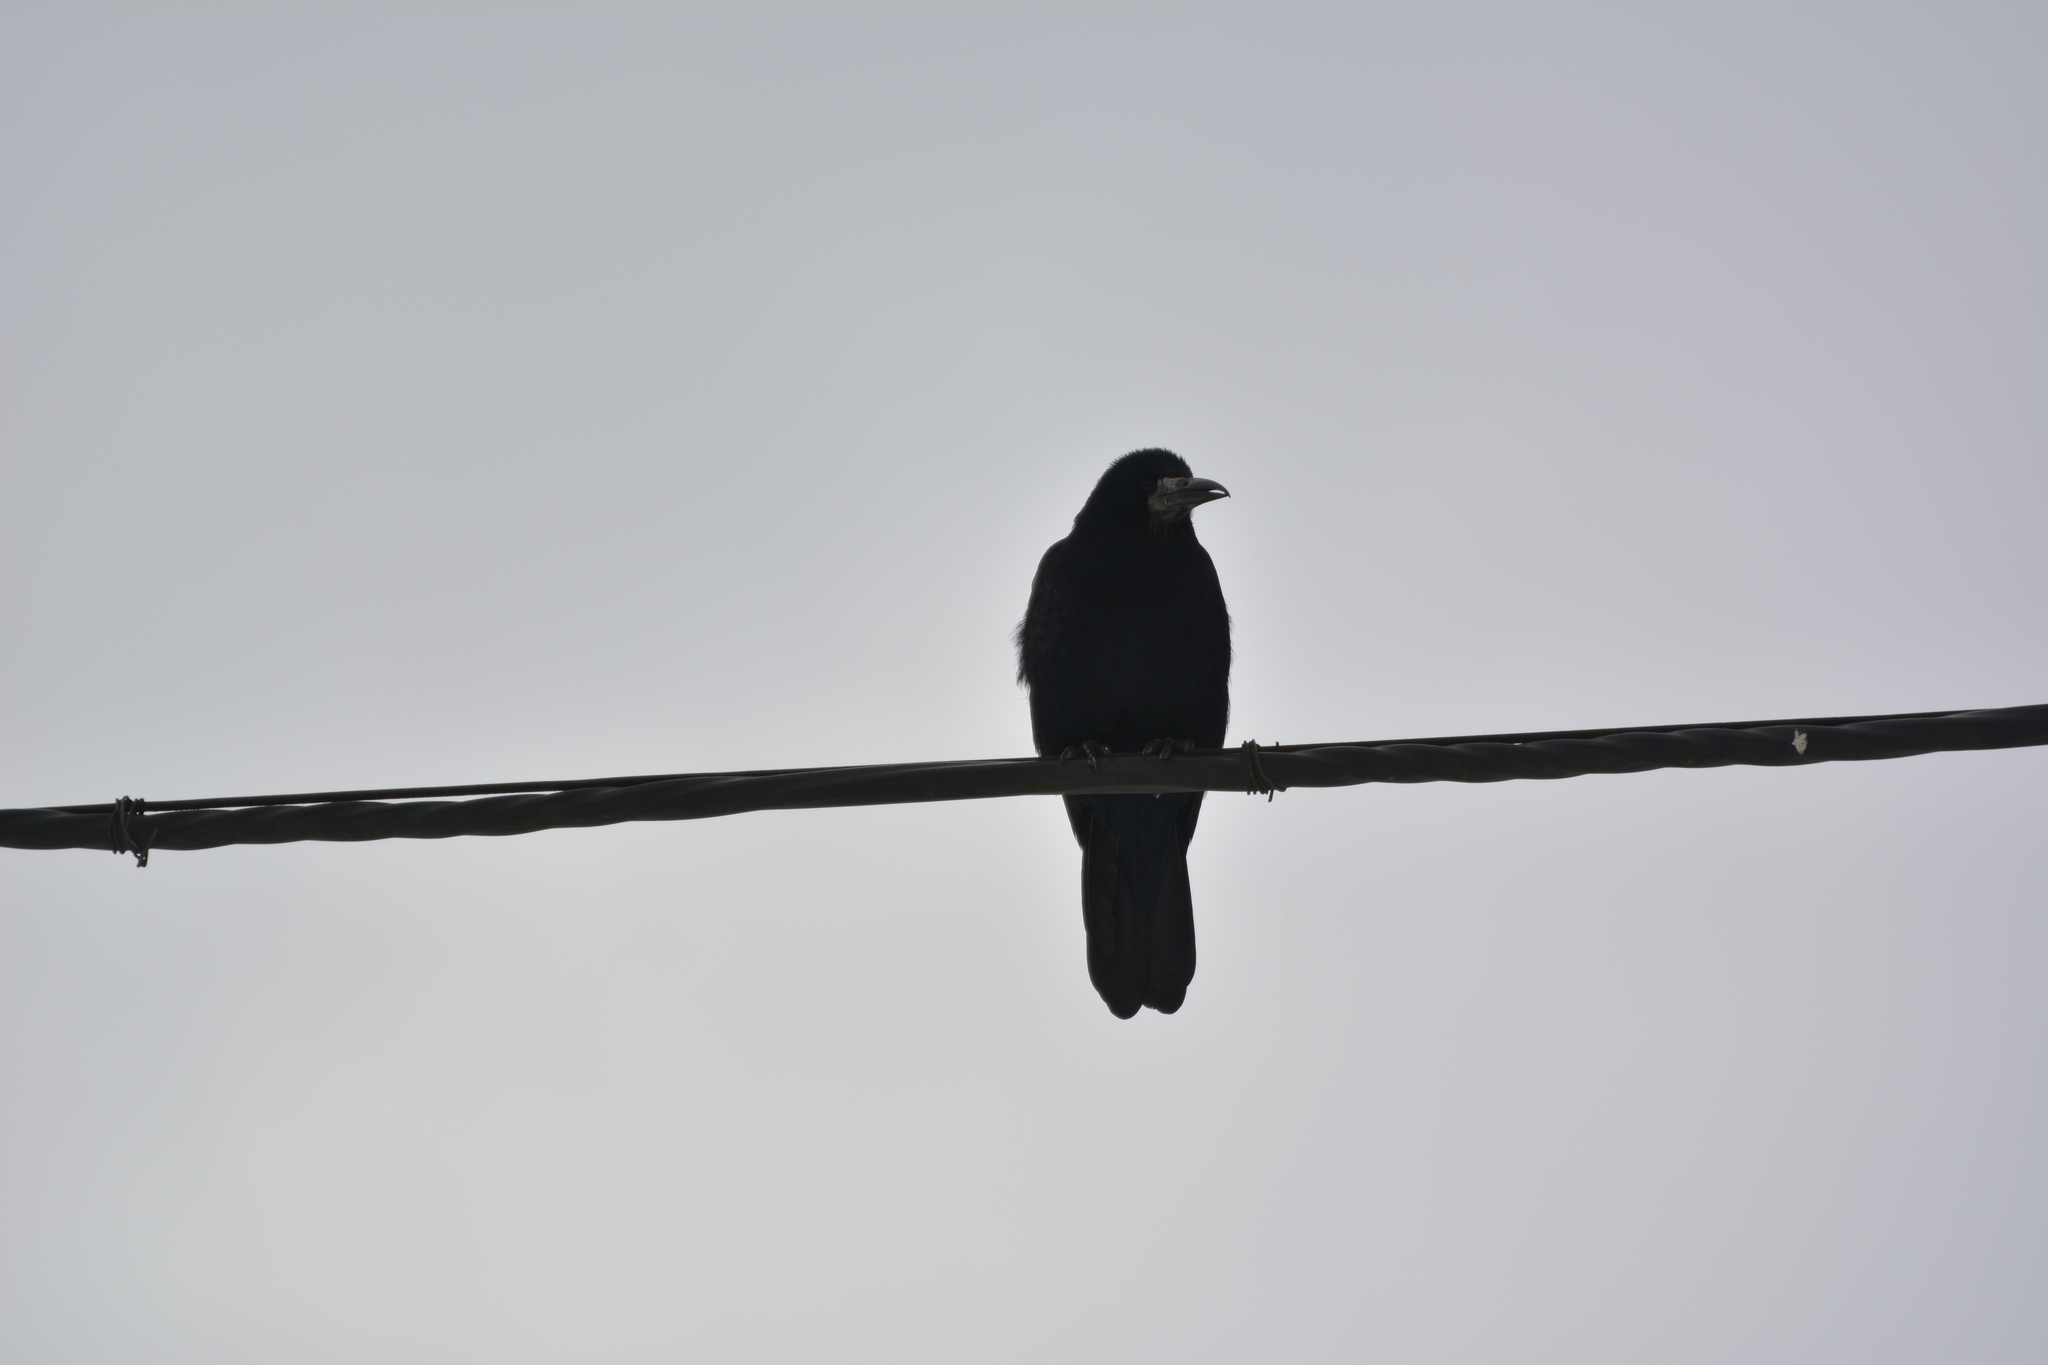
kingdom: Animalia
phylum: Chordata
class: Aves
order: Passeriformes
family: Corvidae
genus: Corvus
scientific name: Corvus frugilegus
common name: Rook
